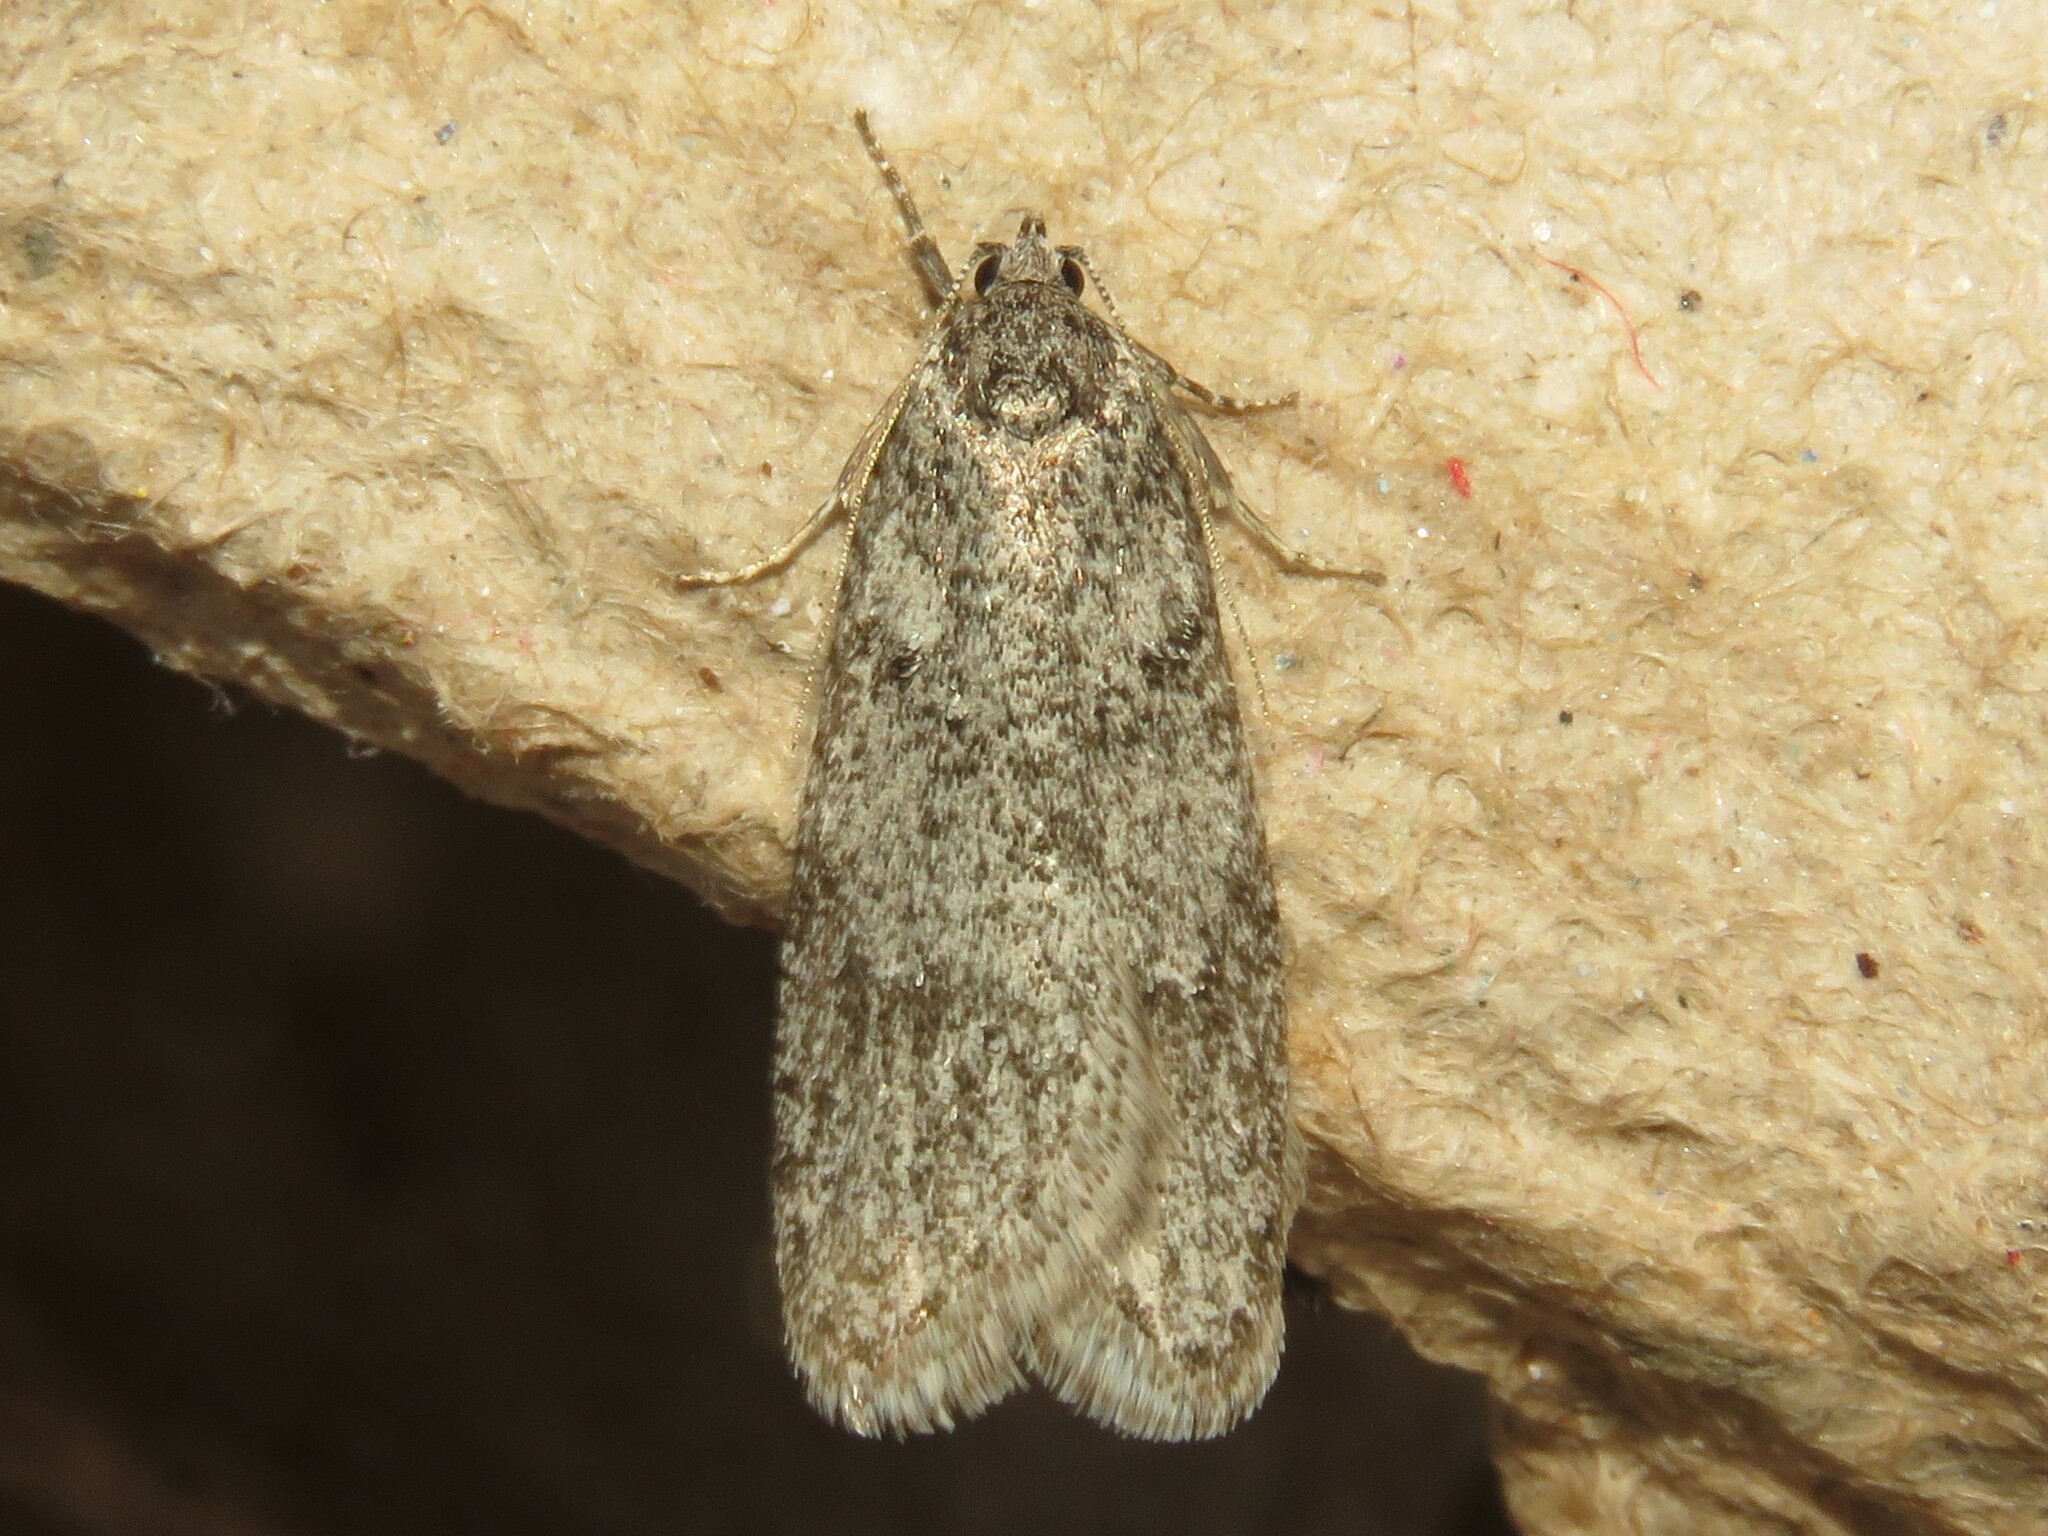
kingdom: Animalia
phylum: Arthropoda
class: Insecta
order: Lepidoptera
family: Depressariidae
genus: Semioscopis
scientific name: Semioscopis inornata
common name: Poplar micromoth
